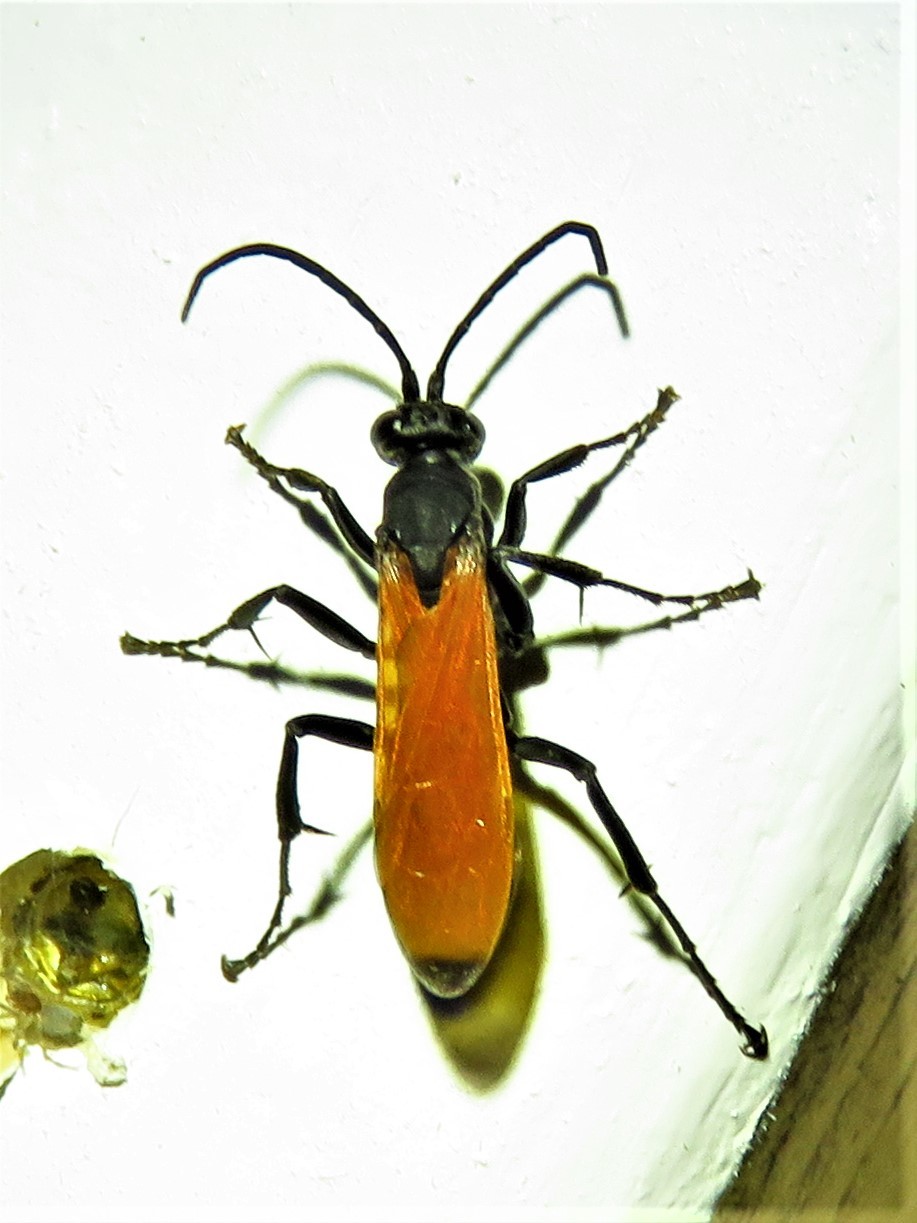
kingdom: Animalia
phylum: Arthropoda
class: Insecta
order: Hymenoptera
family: Pompilidae
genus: Pepsis
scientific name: Pepsis thisbe
